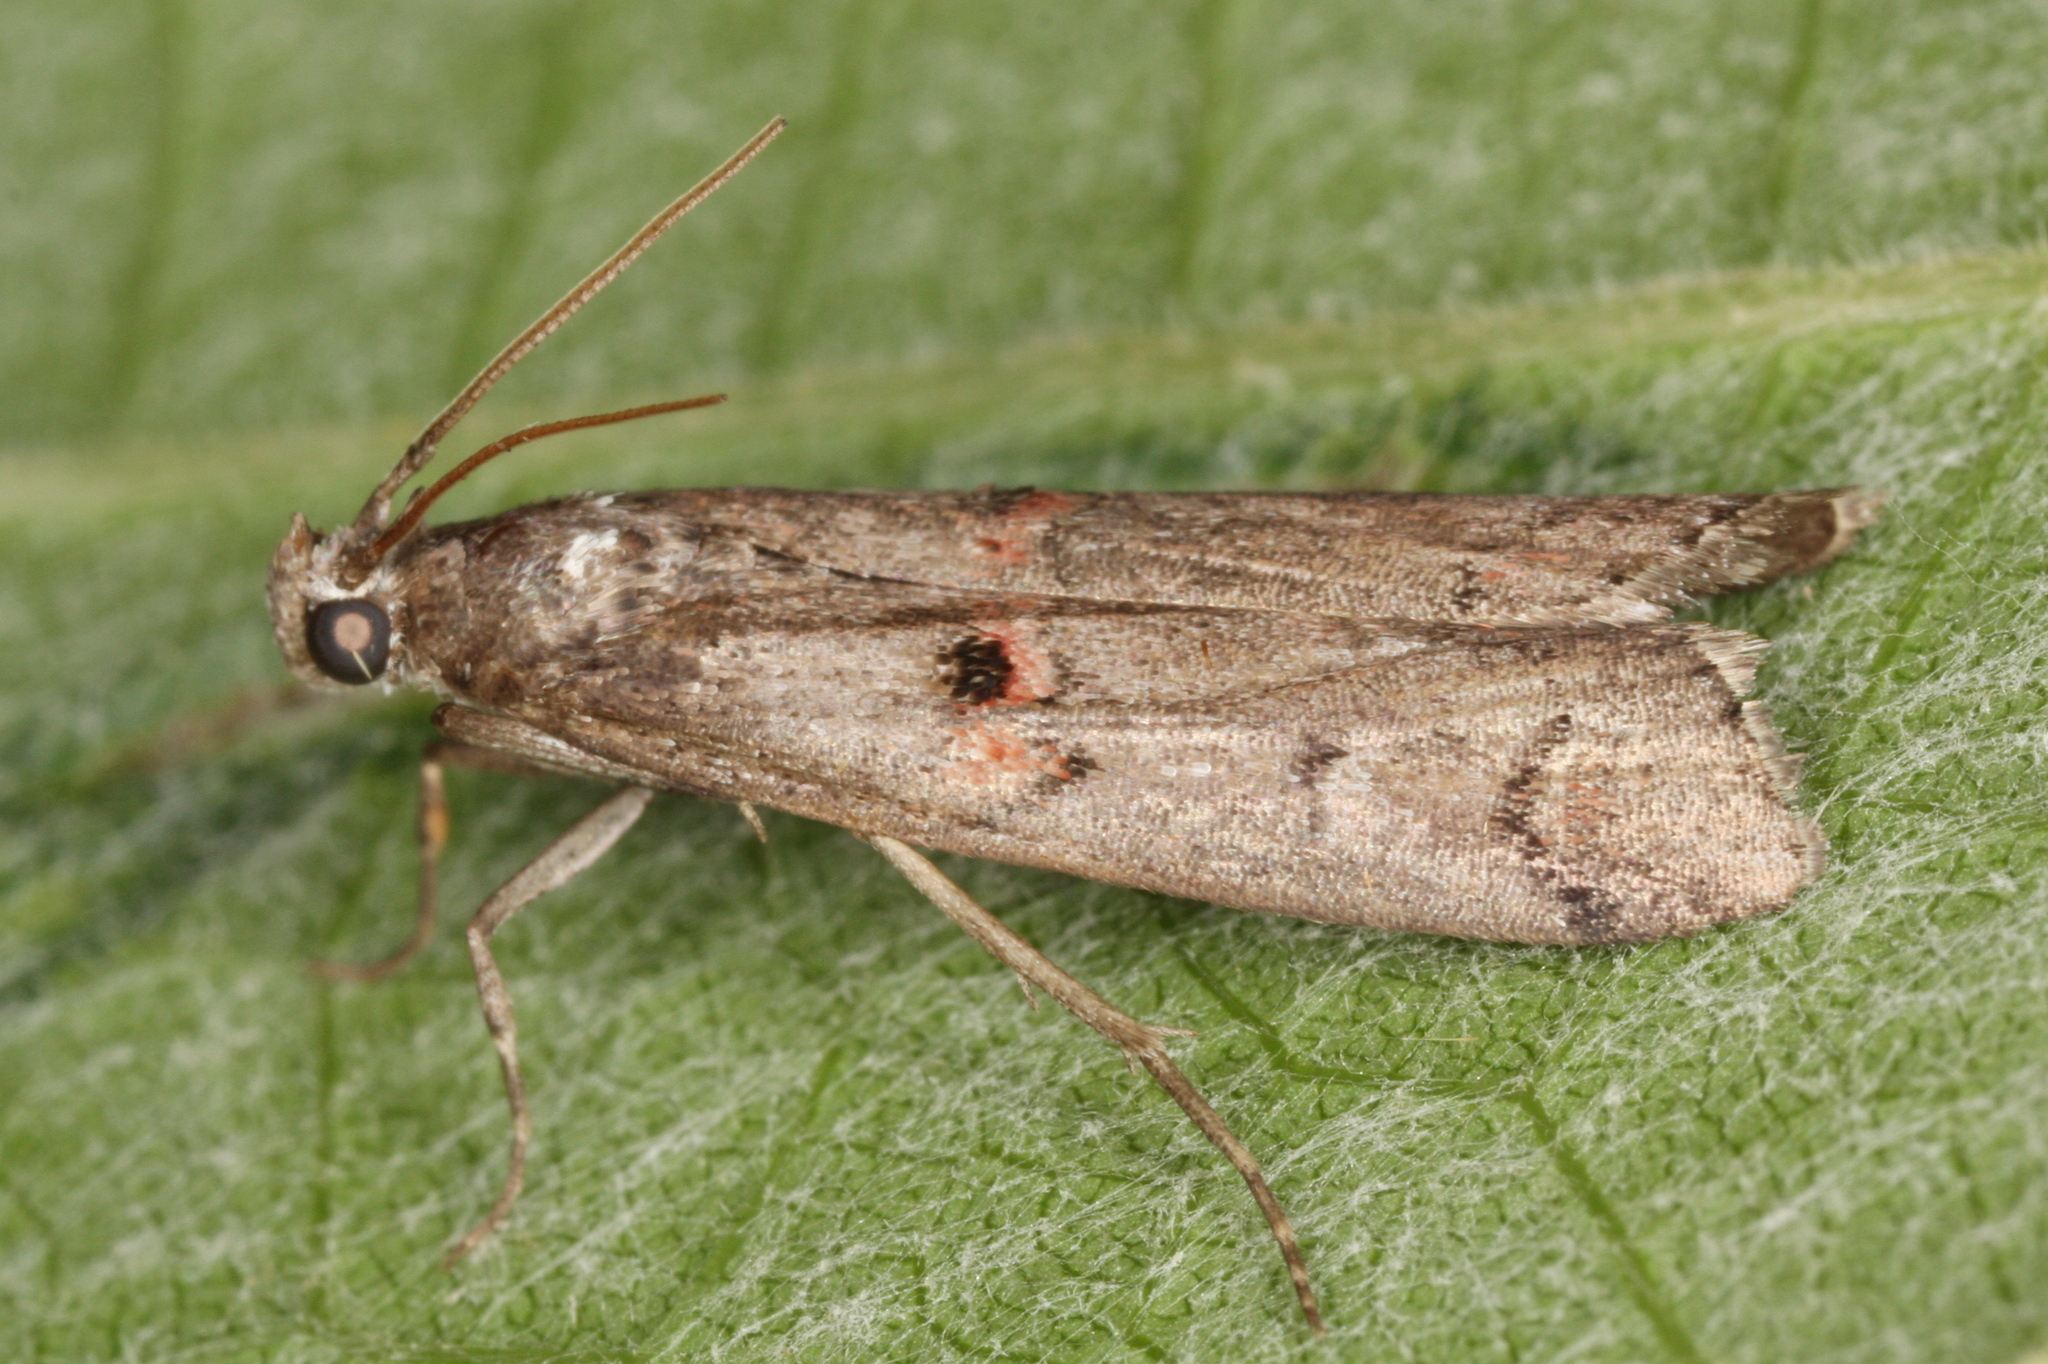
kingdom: Animalia
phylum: Arthropoda
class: Insecta
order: Lepidoptera
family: Pyralidae
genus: Pempelia
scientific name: Pempelia palumbella
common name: Heather knot-horn
